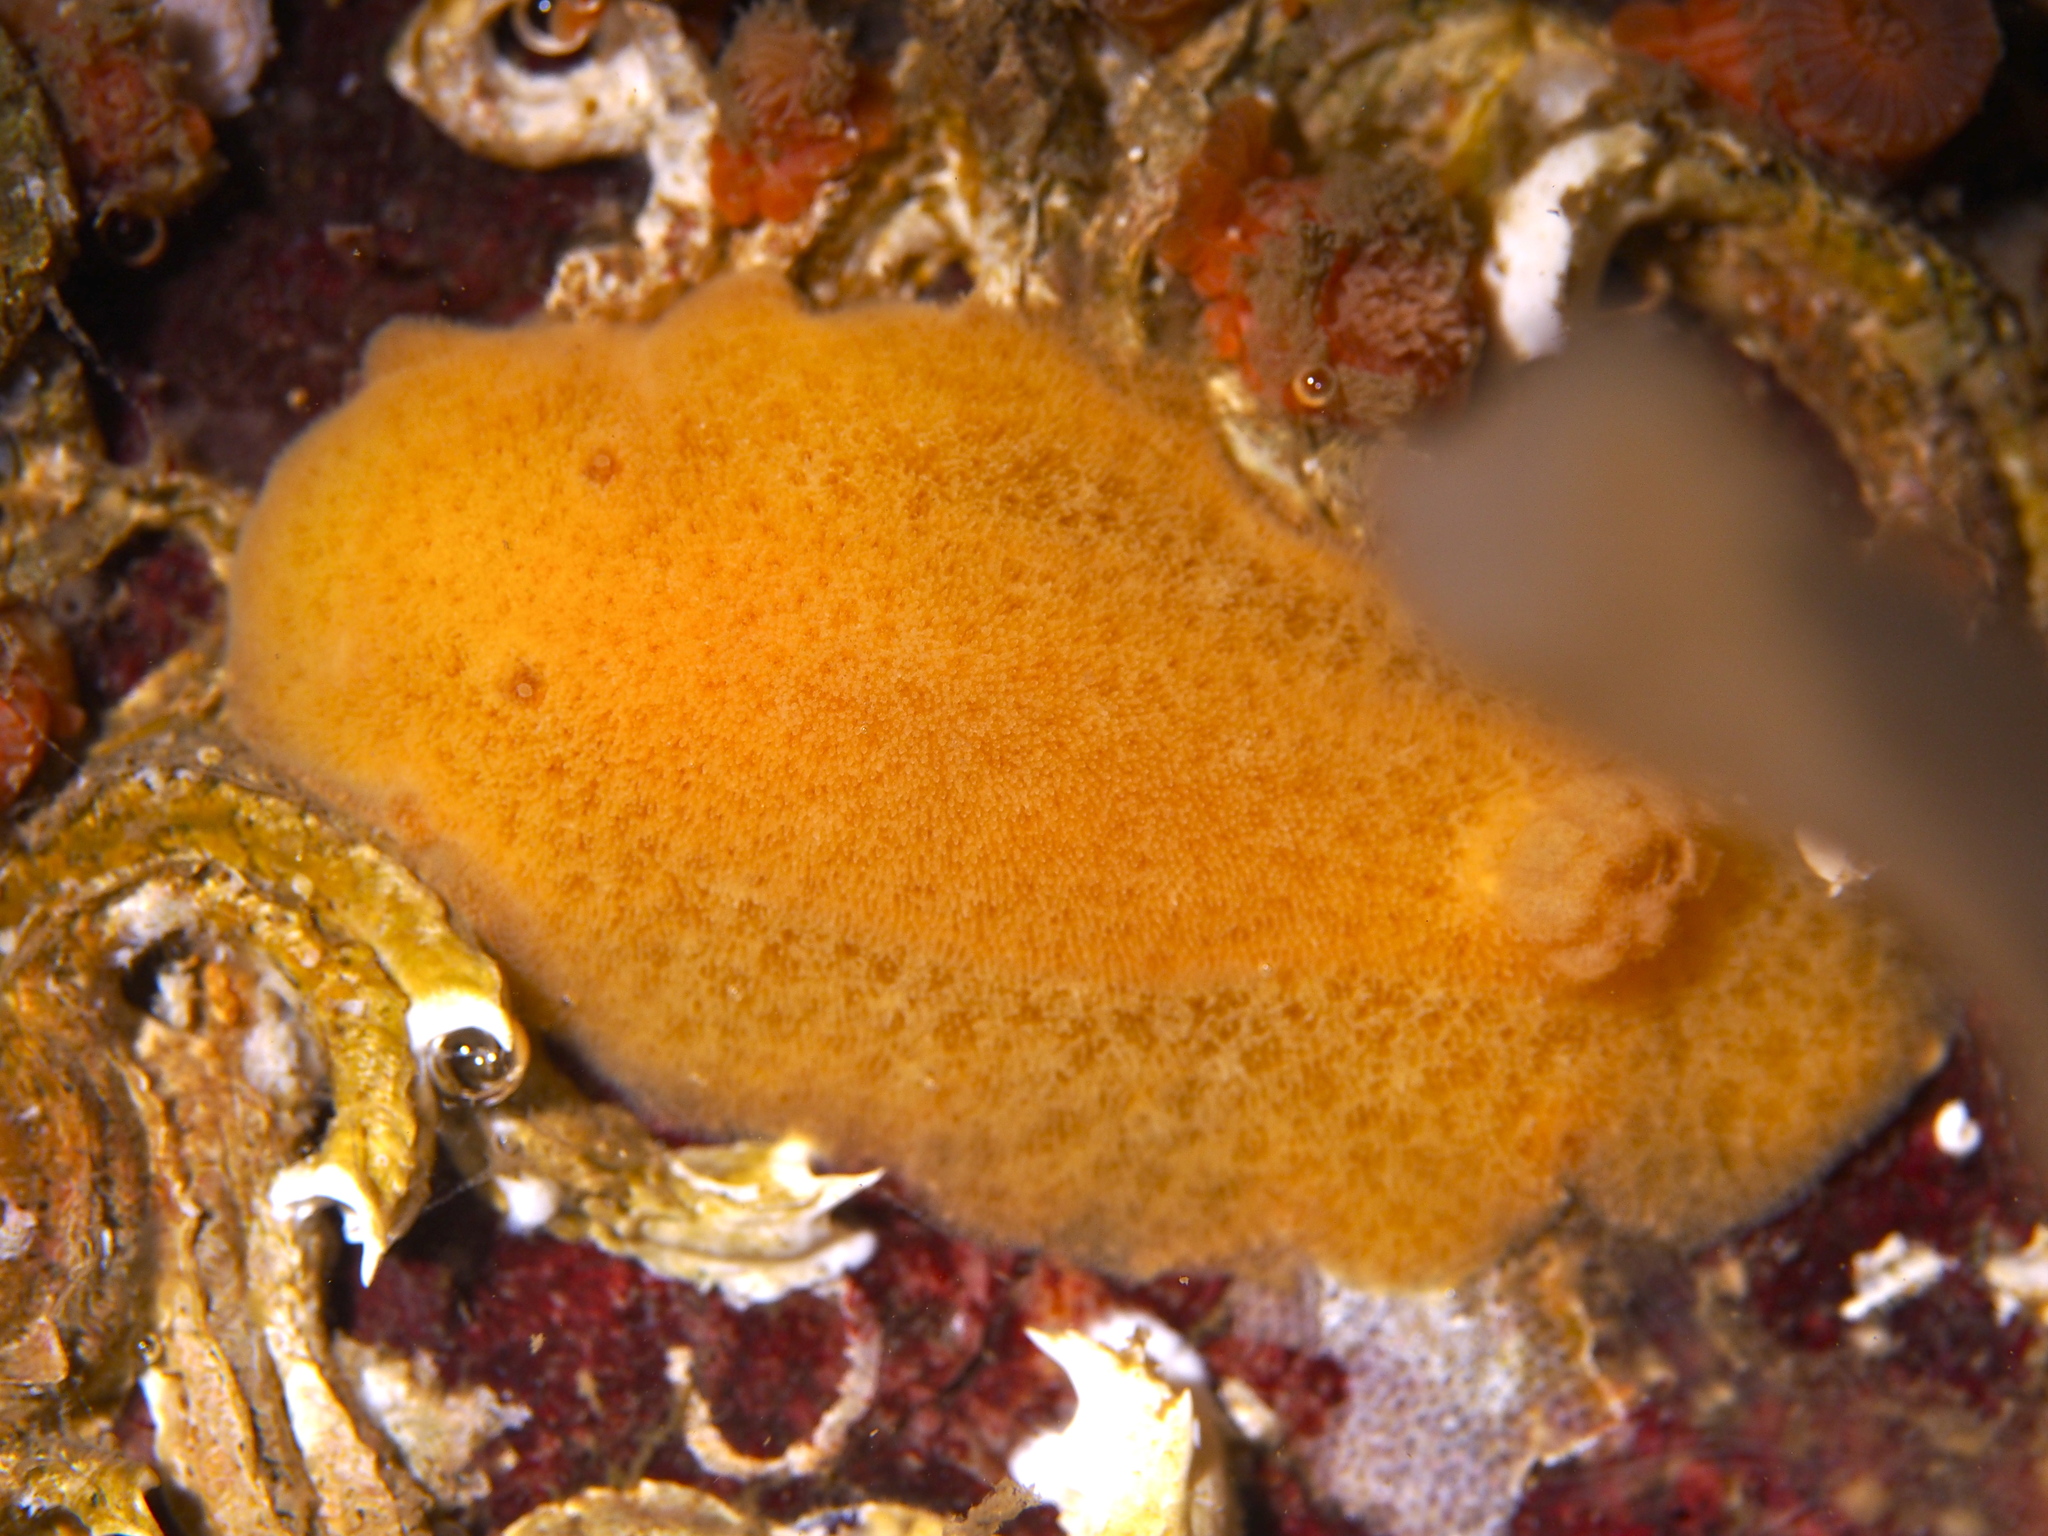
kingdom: Animalia
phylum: Mollusca
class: Gastropoda
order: Nudibranchia
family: Discodorididae
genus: Jorunna
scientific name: Jorunna tomentosa
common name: Grey sea slug
